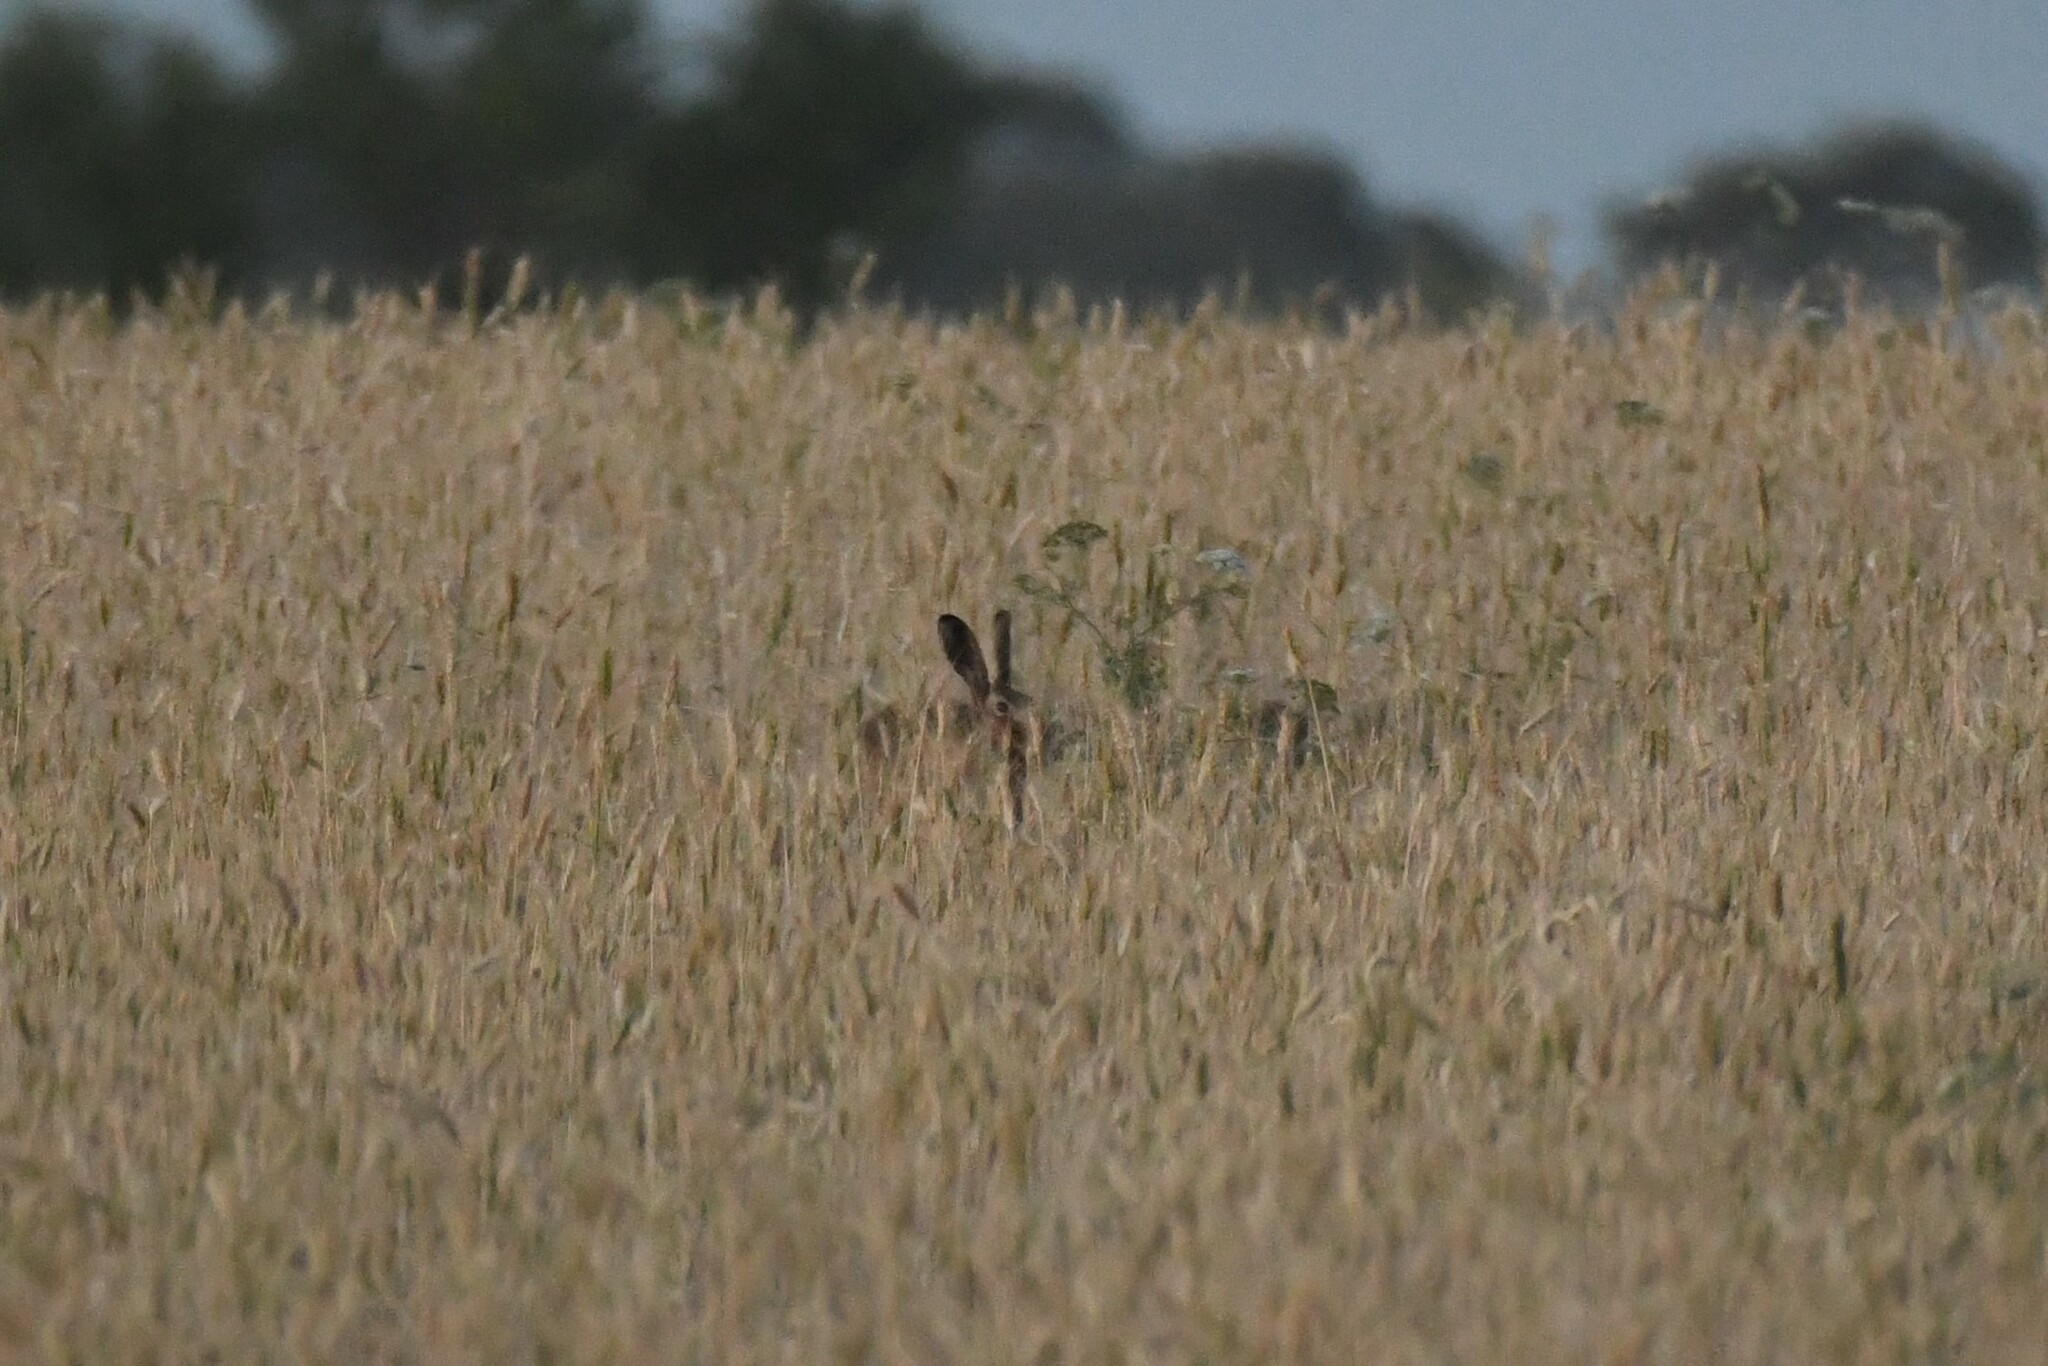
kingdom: Animalia
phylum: Chordata
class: Mammalia
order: Lagomorpha
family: Leporidae
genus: Lepus
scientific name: Lepus europaeus
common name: European hare
